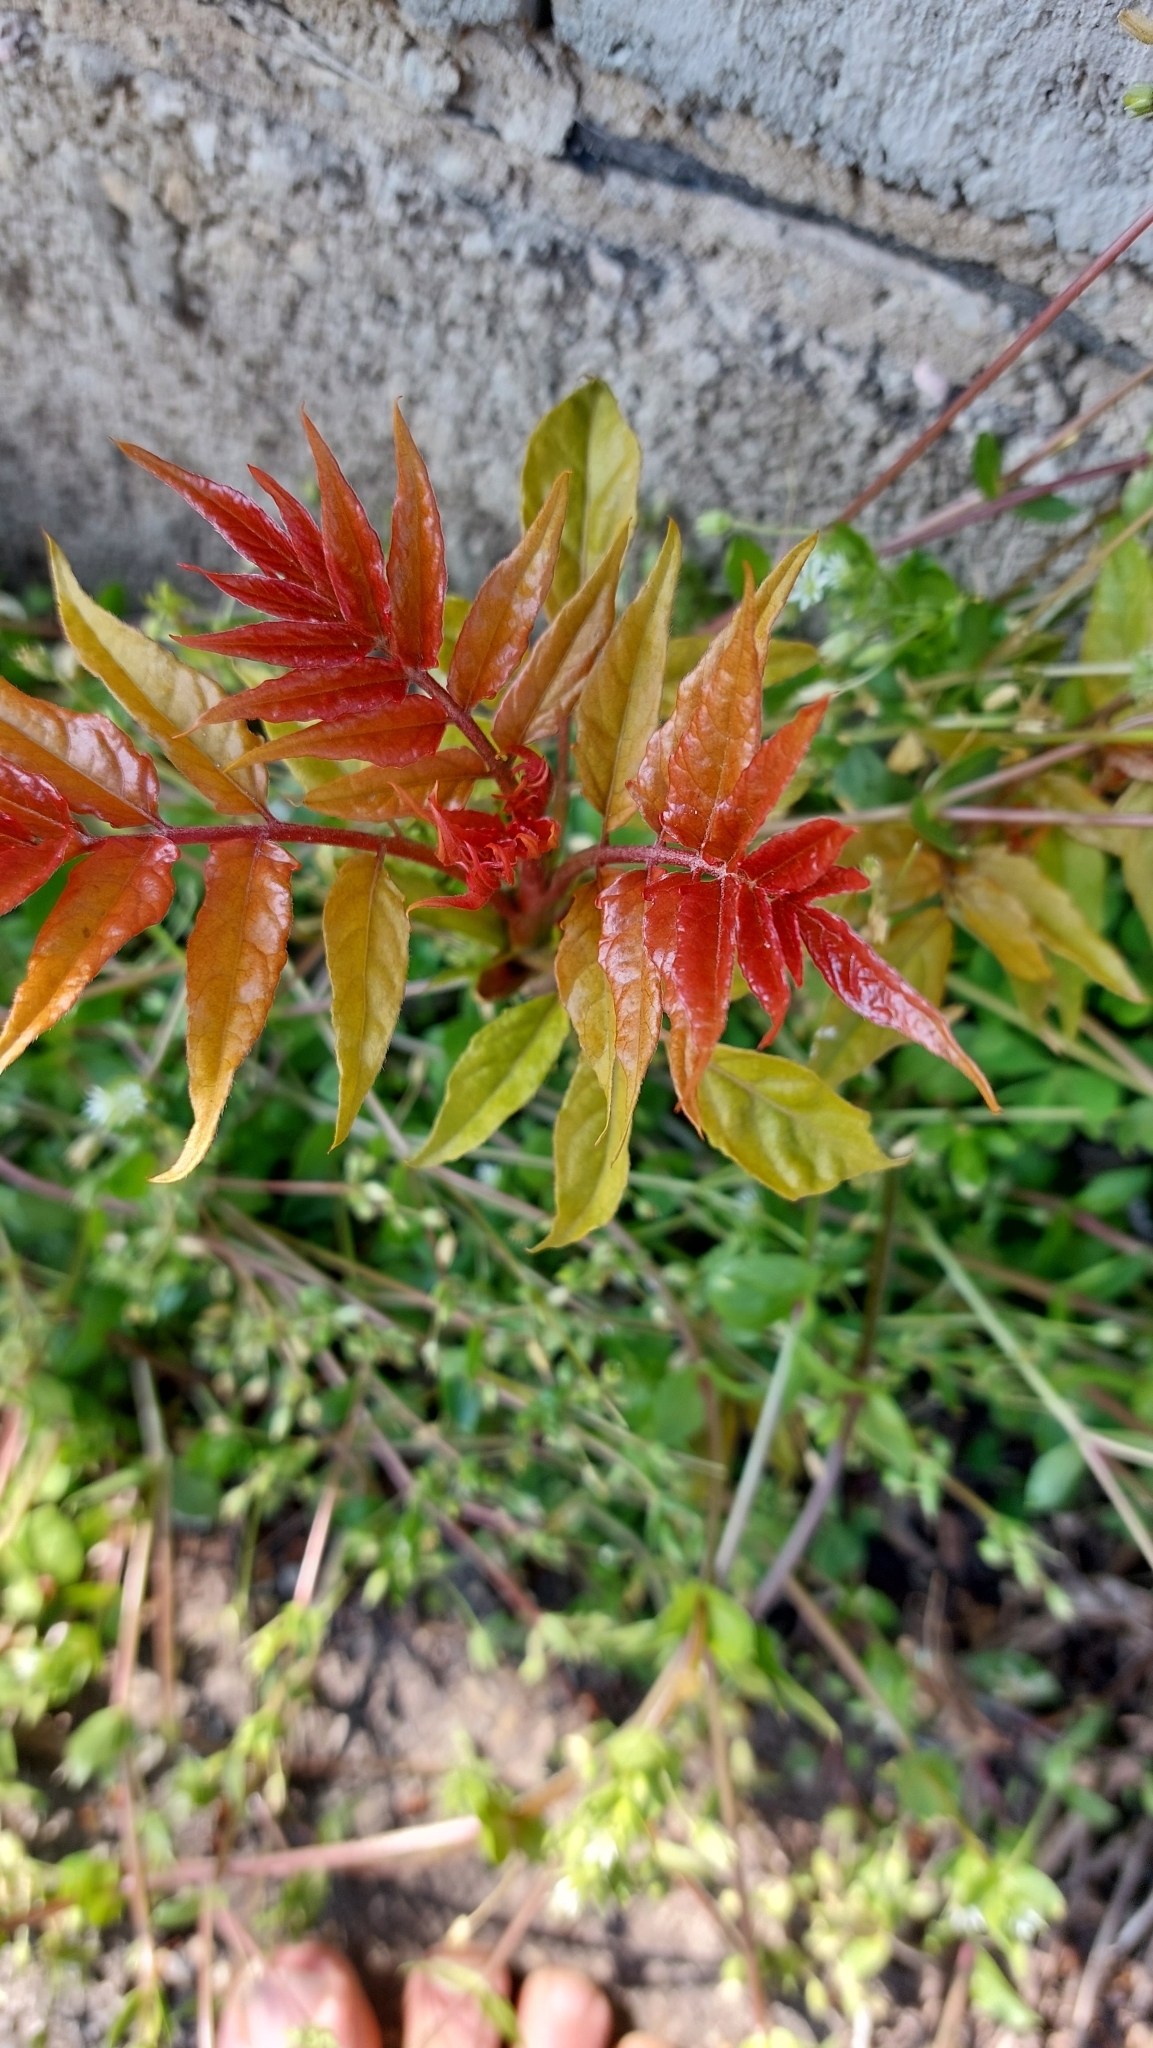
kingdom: Plantae
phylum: Tracheophyta
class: Magnoliopsida
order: Sapindales
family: Simaroubaceae
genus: Ailanthus
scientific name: Ailanthus altissima
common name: Tree-of-heaven
